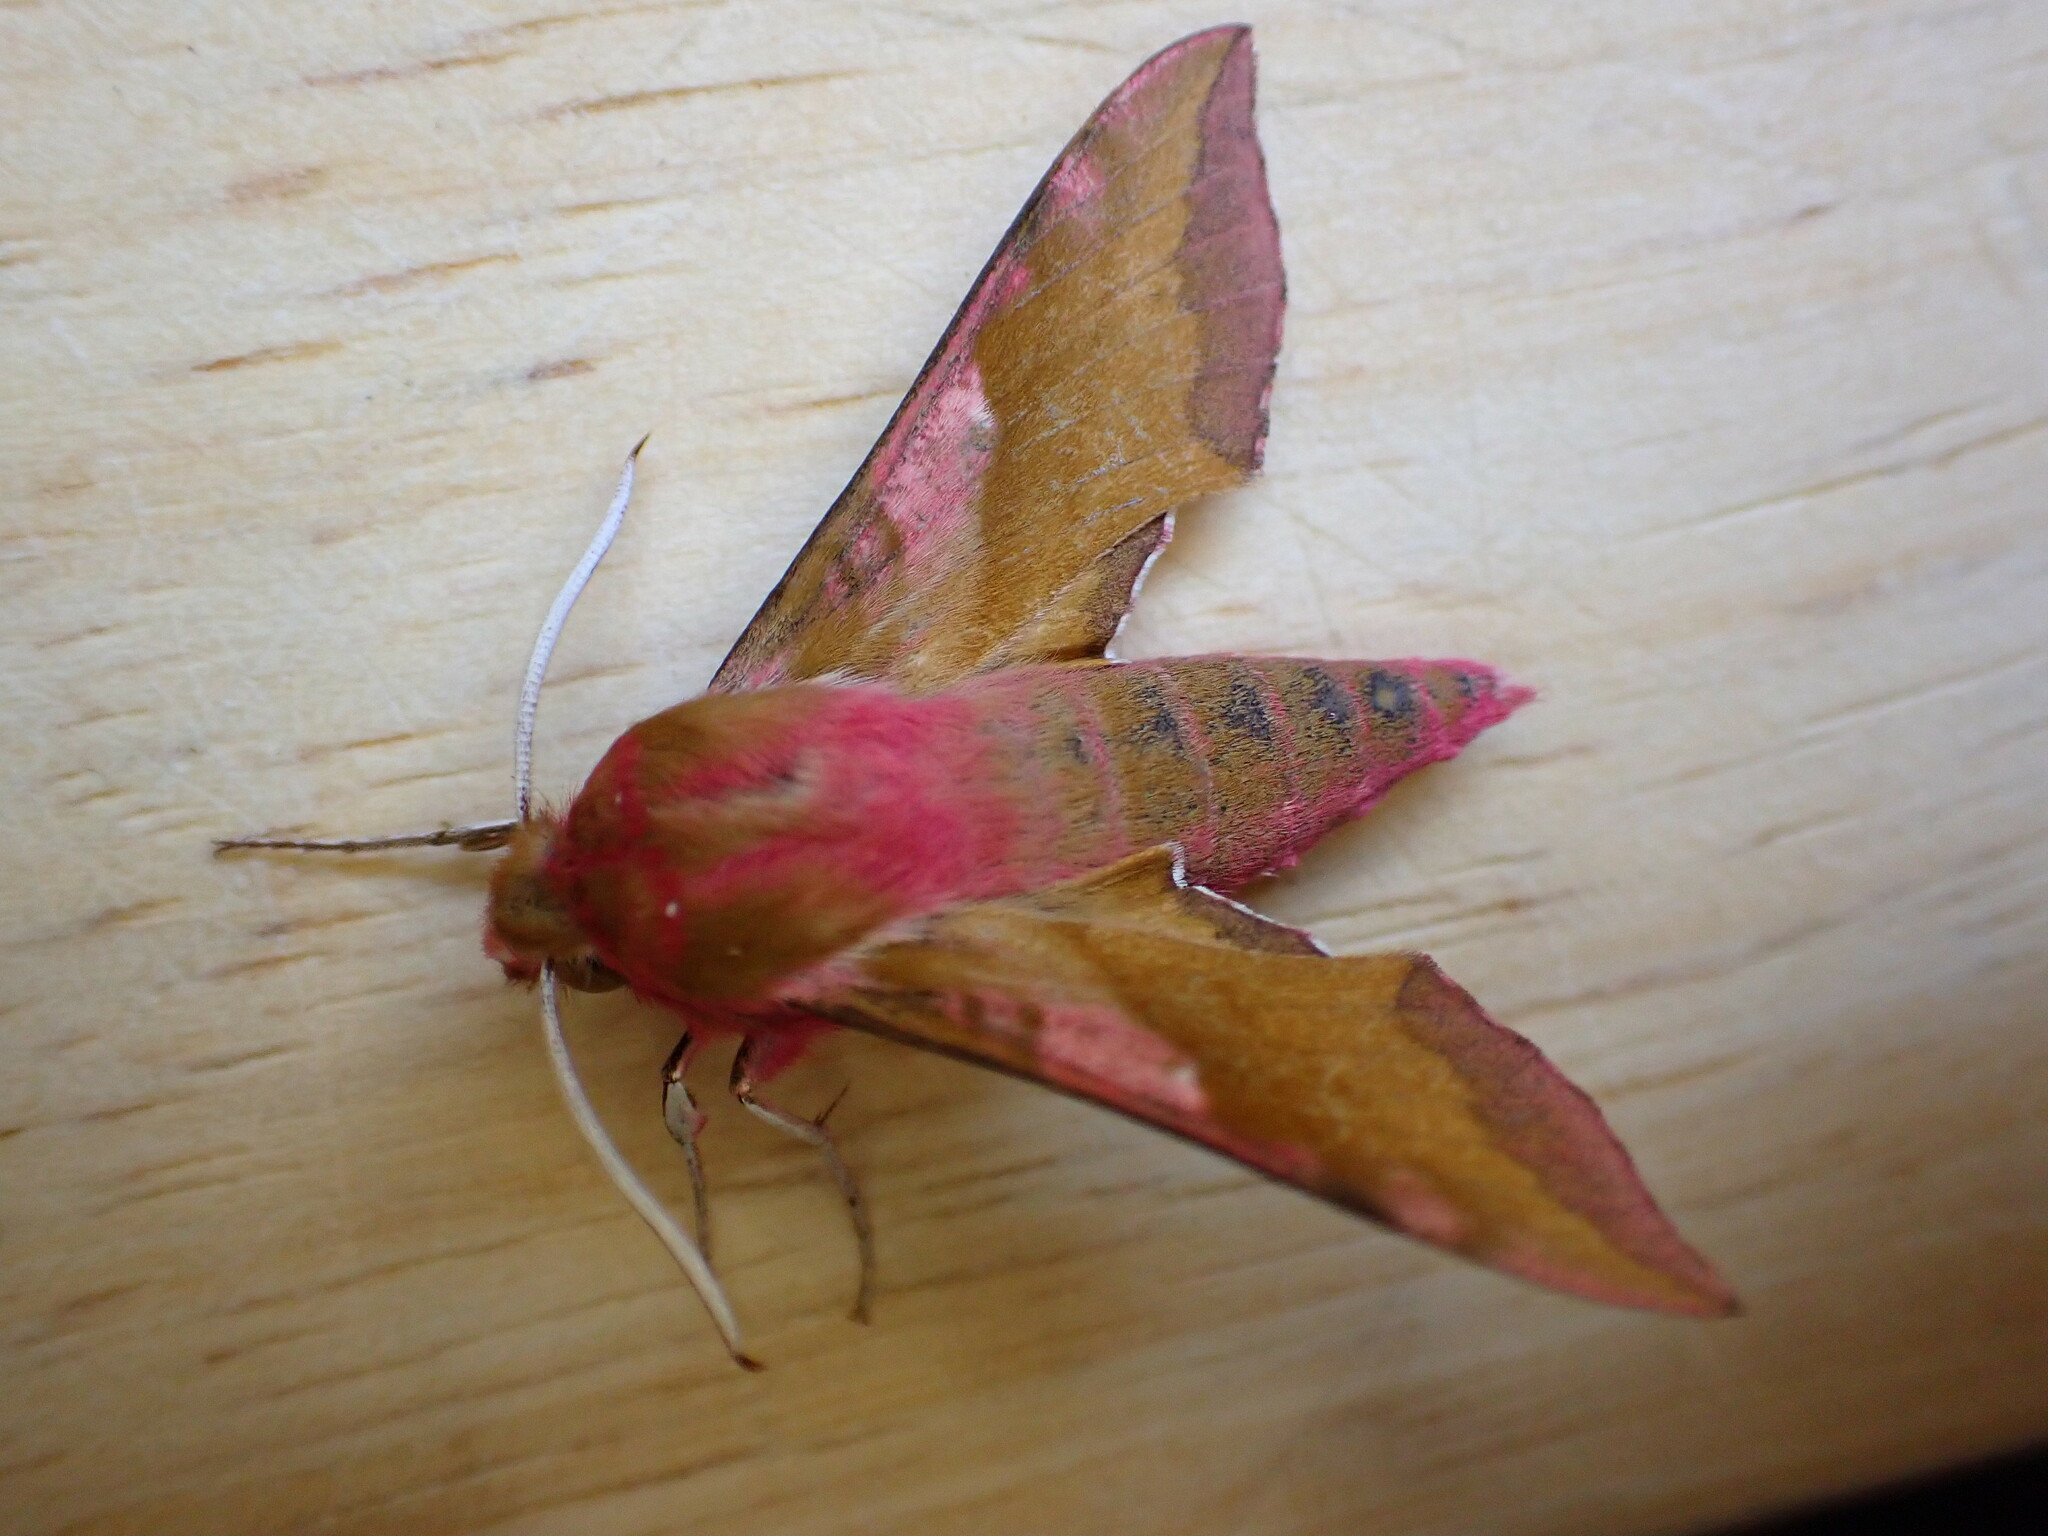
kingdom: Animalia
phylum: Arthropoda
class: Insecta
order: Lepidoptera
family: Sphingidae
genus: Deilephila
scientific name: Deilephila porcellus
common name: Small elephant hawk-moth
